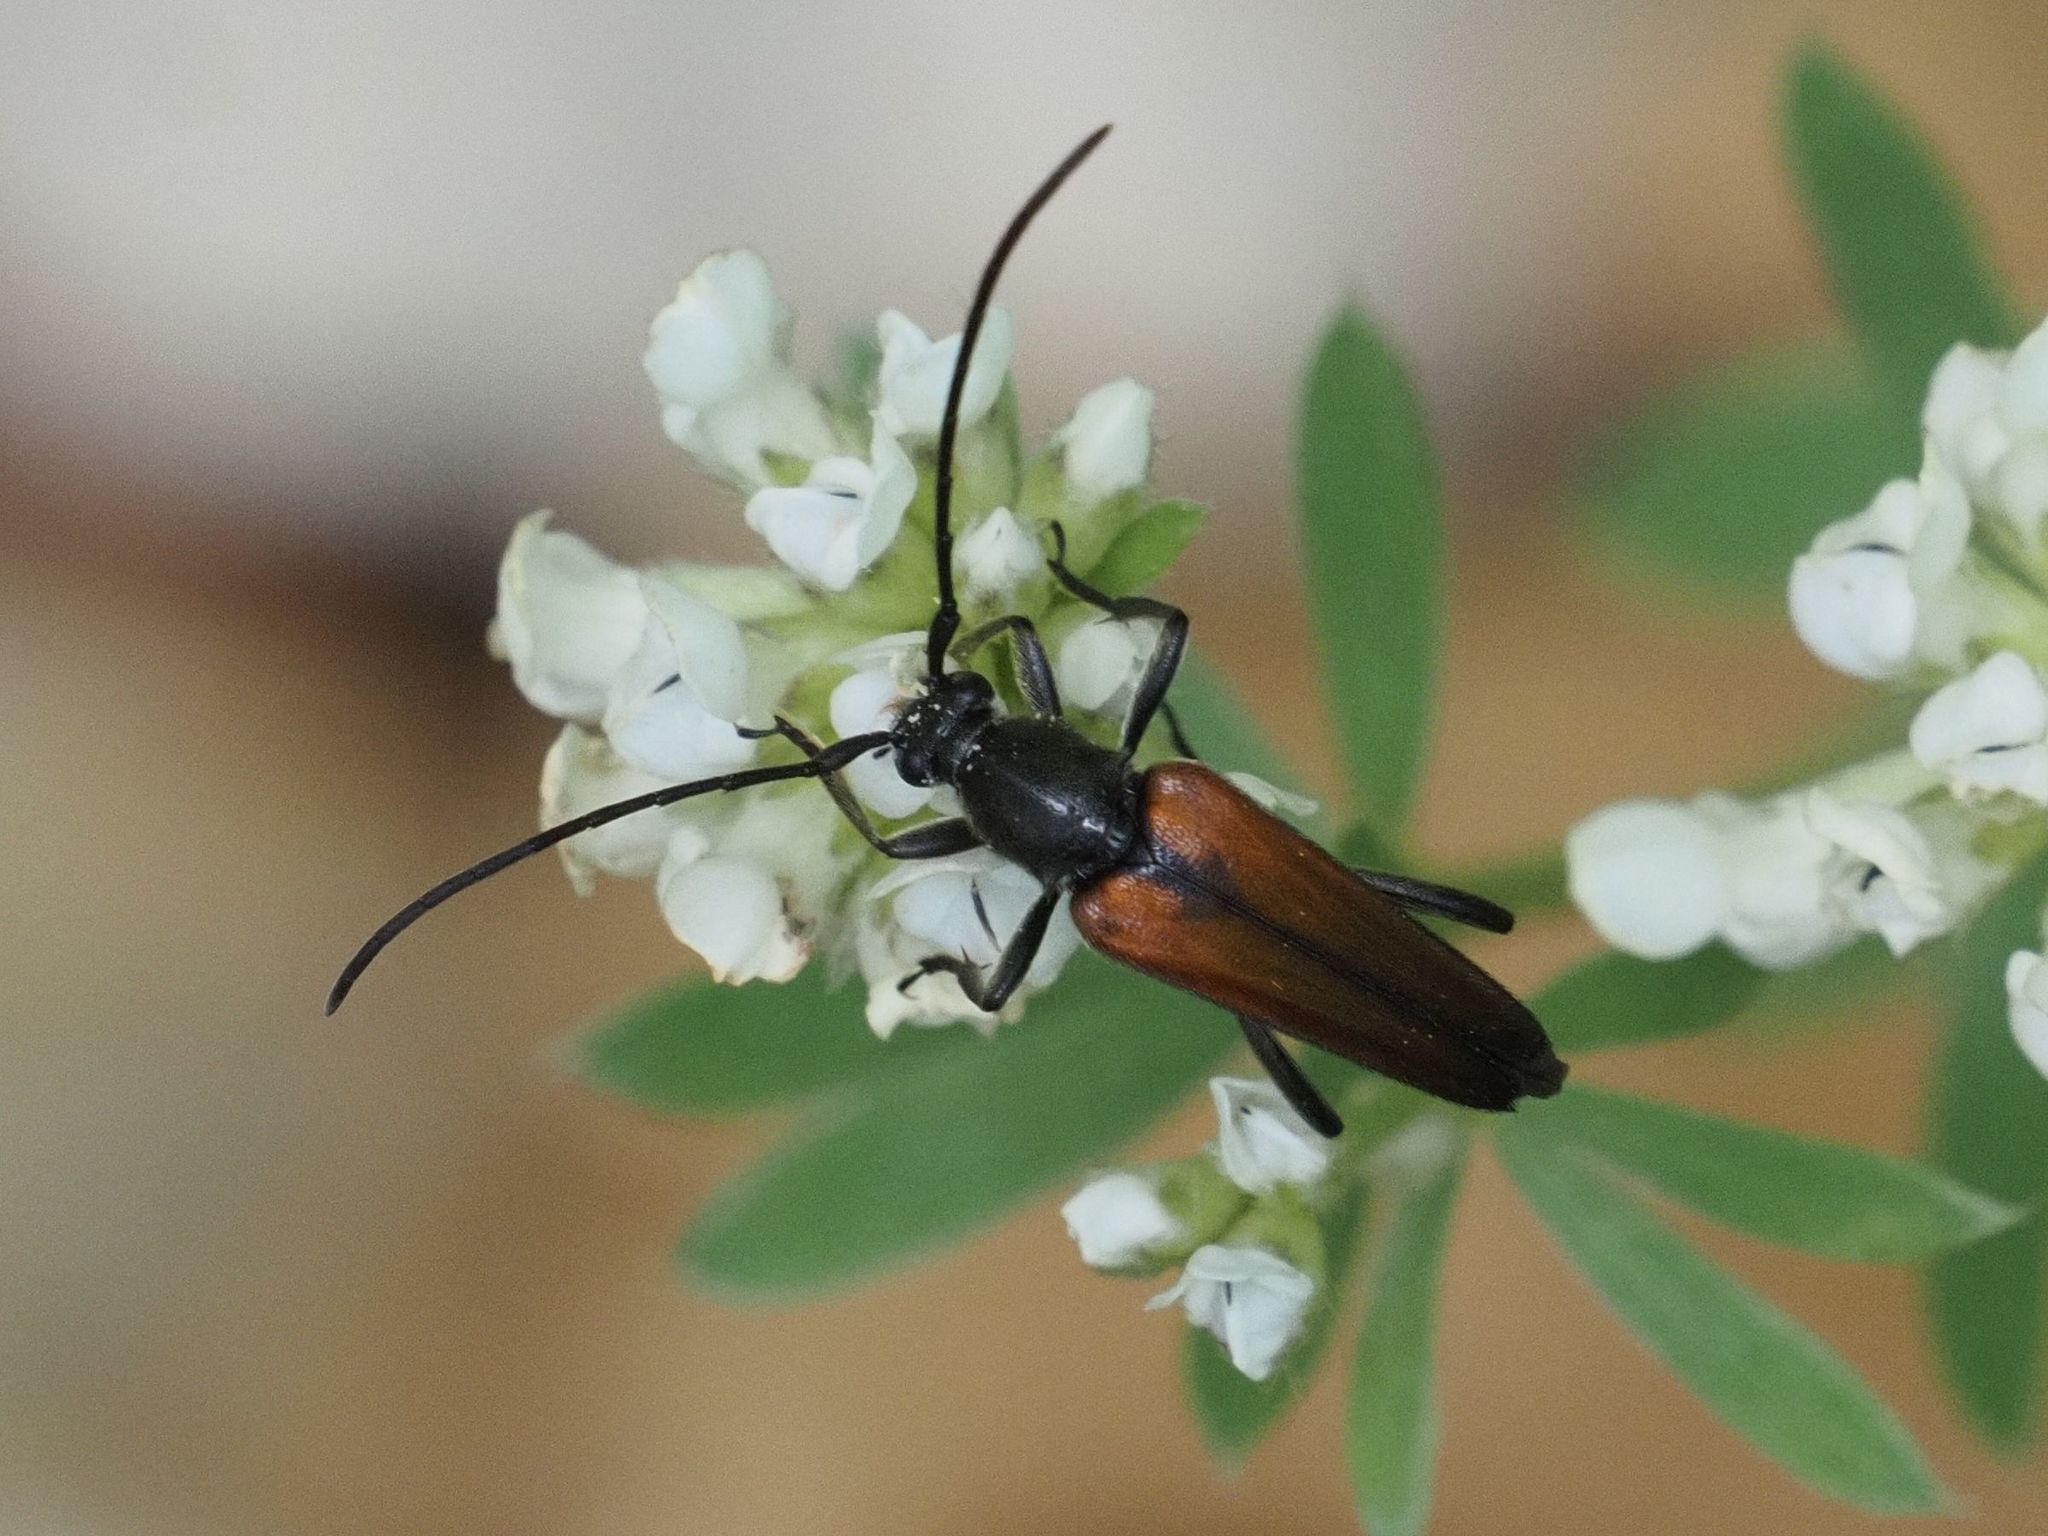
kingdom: Animalia
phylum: Arthropoda
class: Insecta
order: Coleoptera
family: Cerambycidae
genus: Stenurella
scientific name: Stenurella melanura
